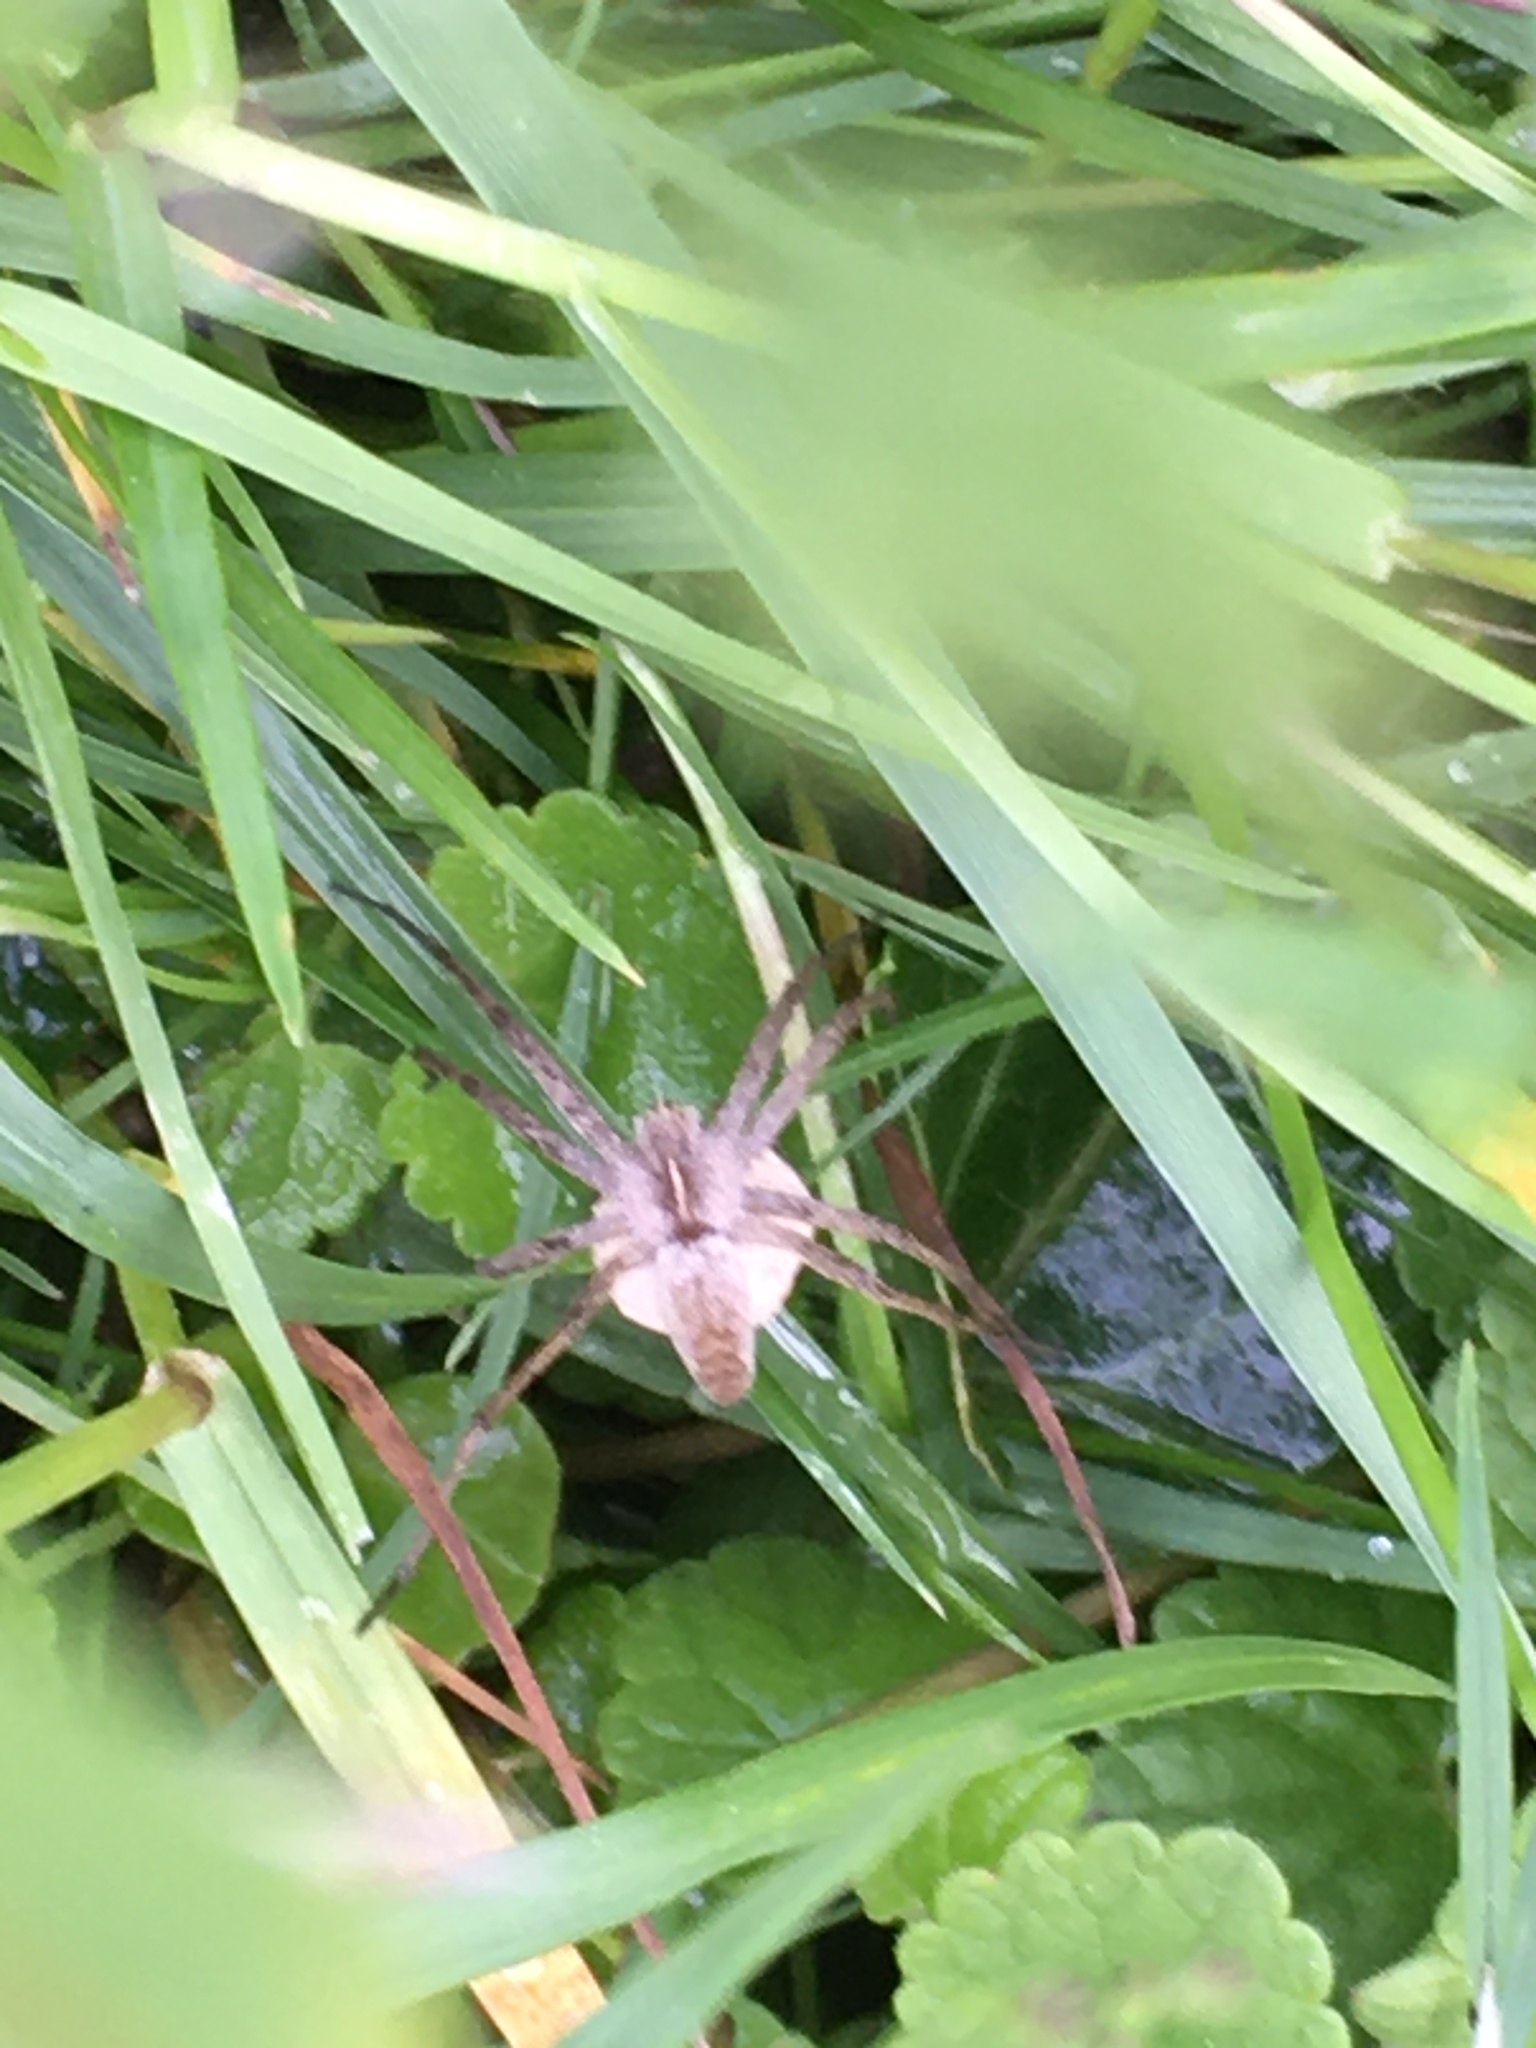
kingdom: Animalia
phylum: Arthropoda
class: Arachnida
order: Araneae
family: Pisauridae
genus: Pisaura
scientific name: Pisaura mirabilis
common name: Tent spider
